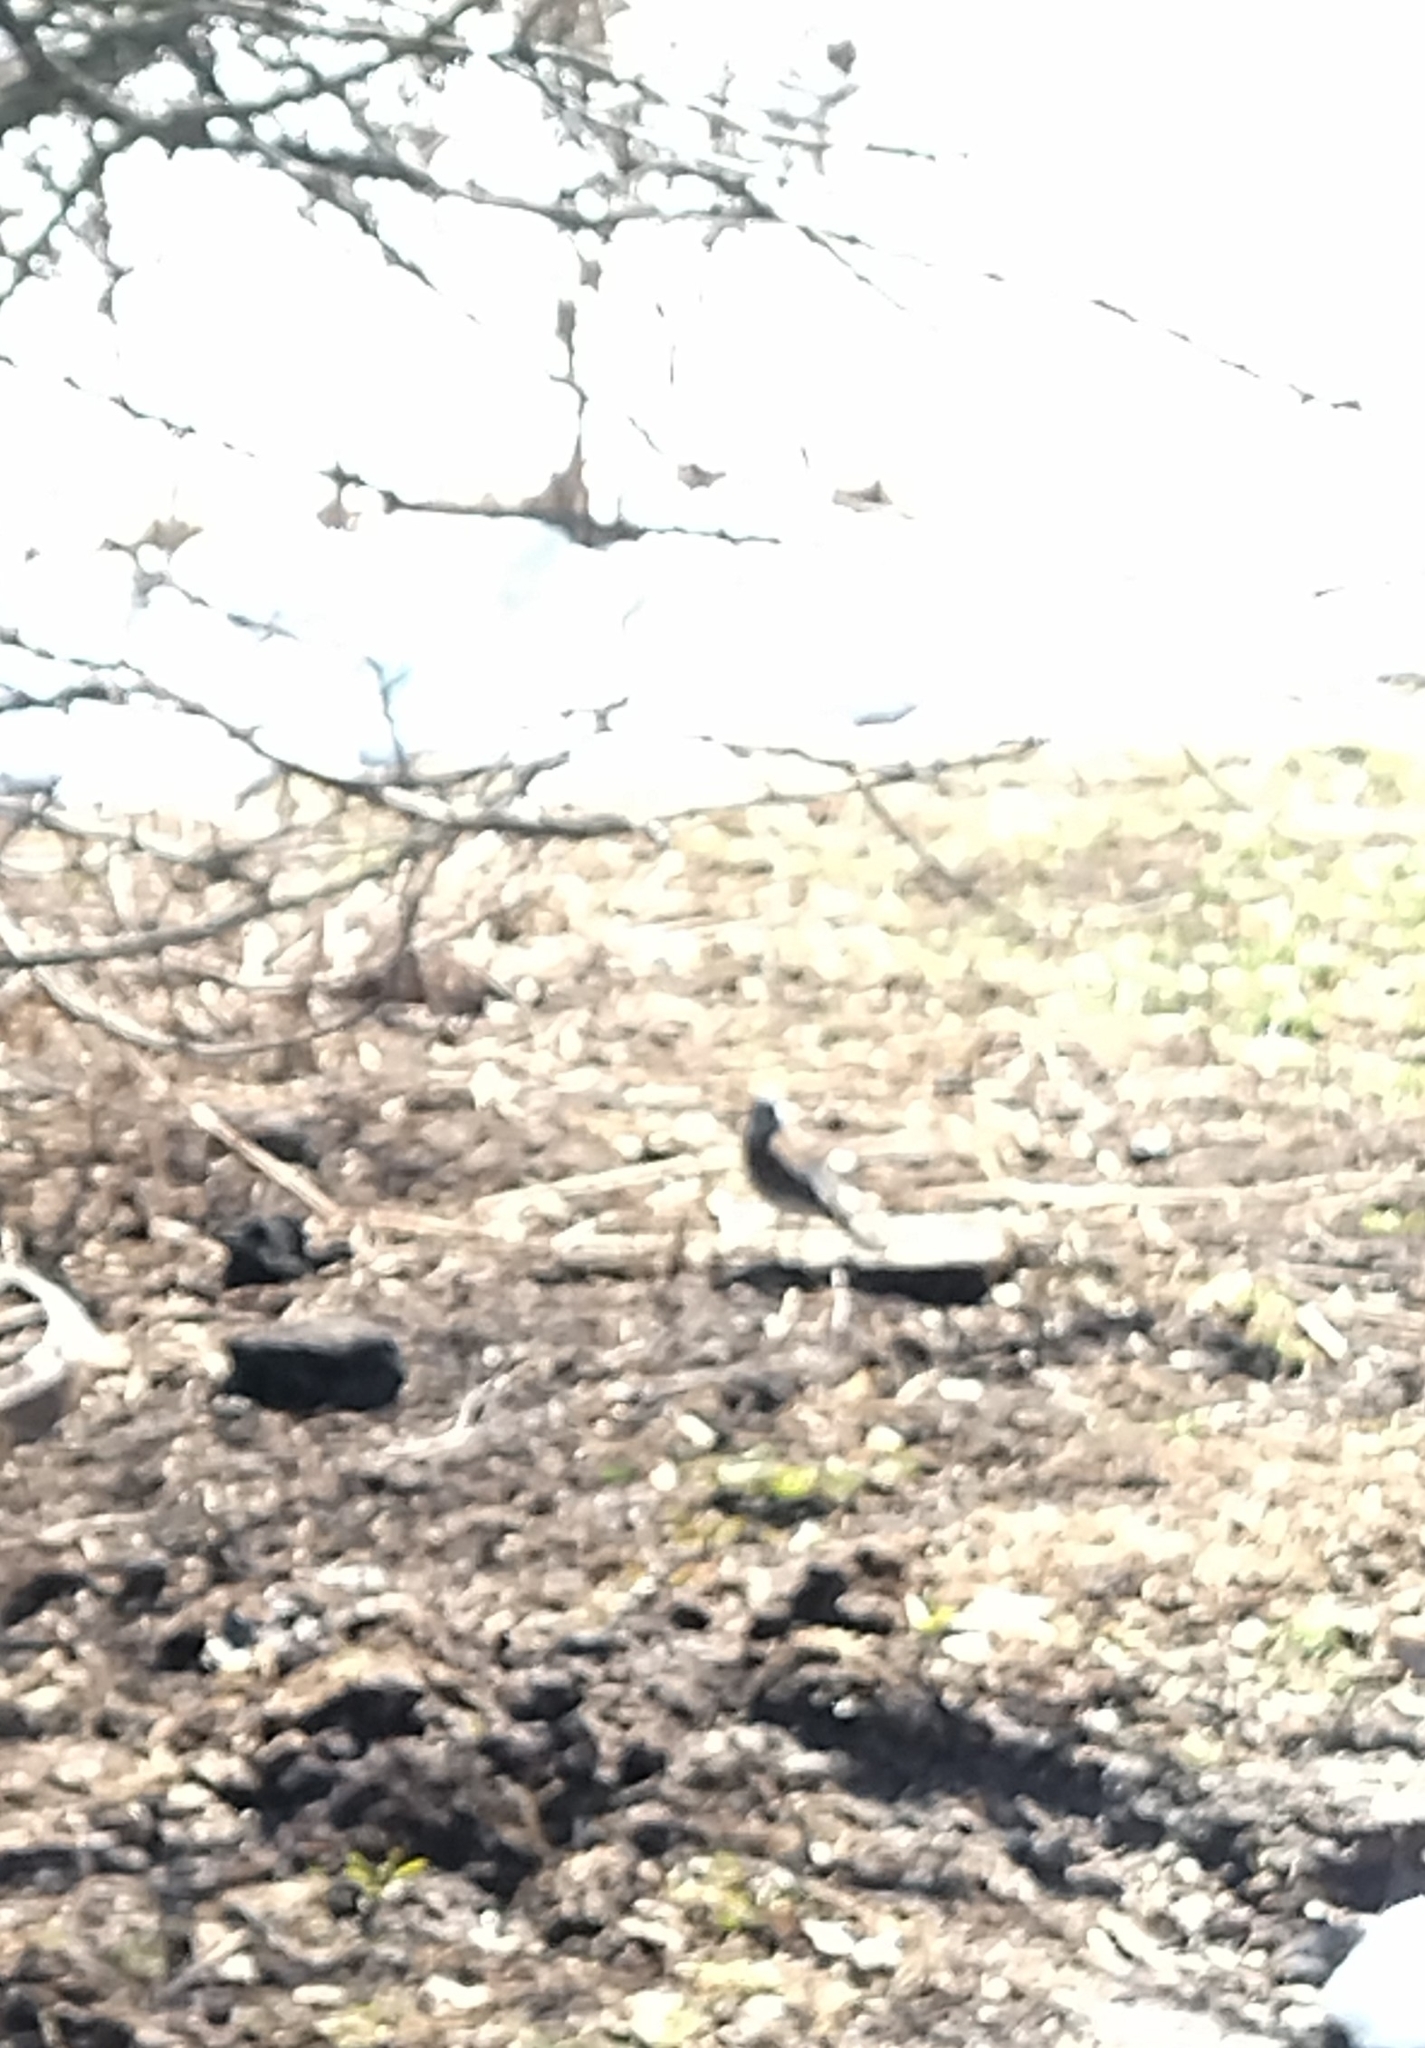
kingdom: Animalia
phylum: Chordata
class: Aves
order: Passeriformes
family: Turdidae
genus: Turdus
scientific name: Turdus pilaris
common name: Fieldfare
